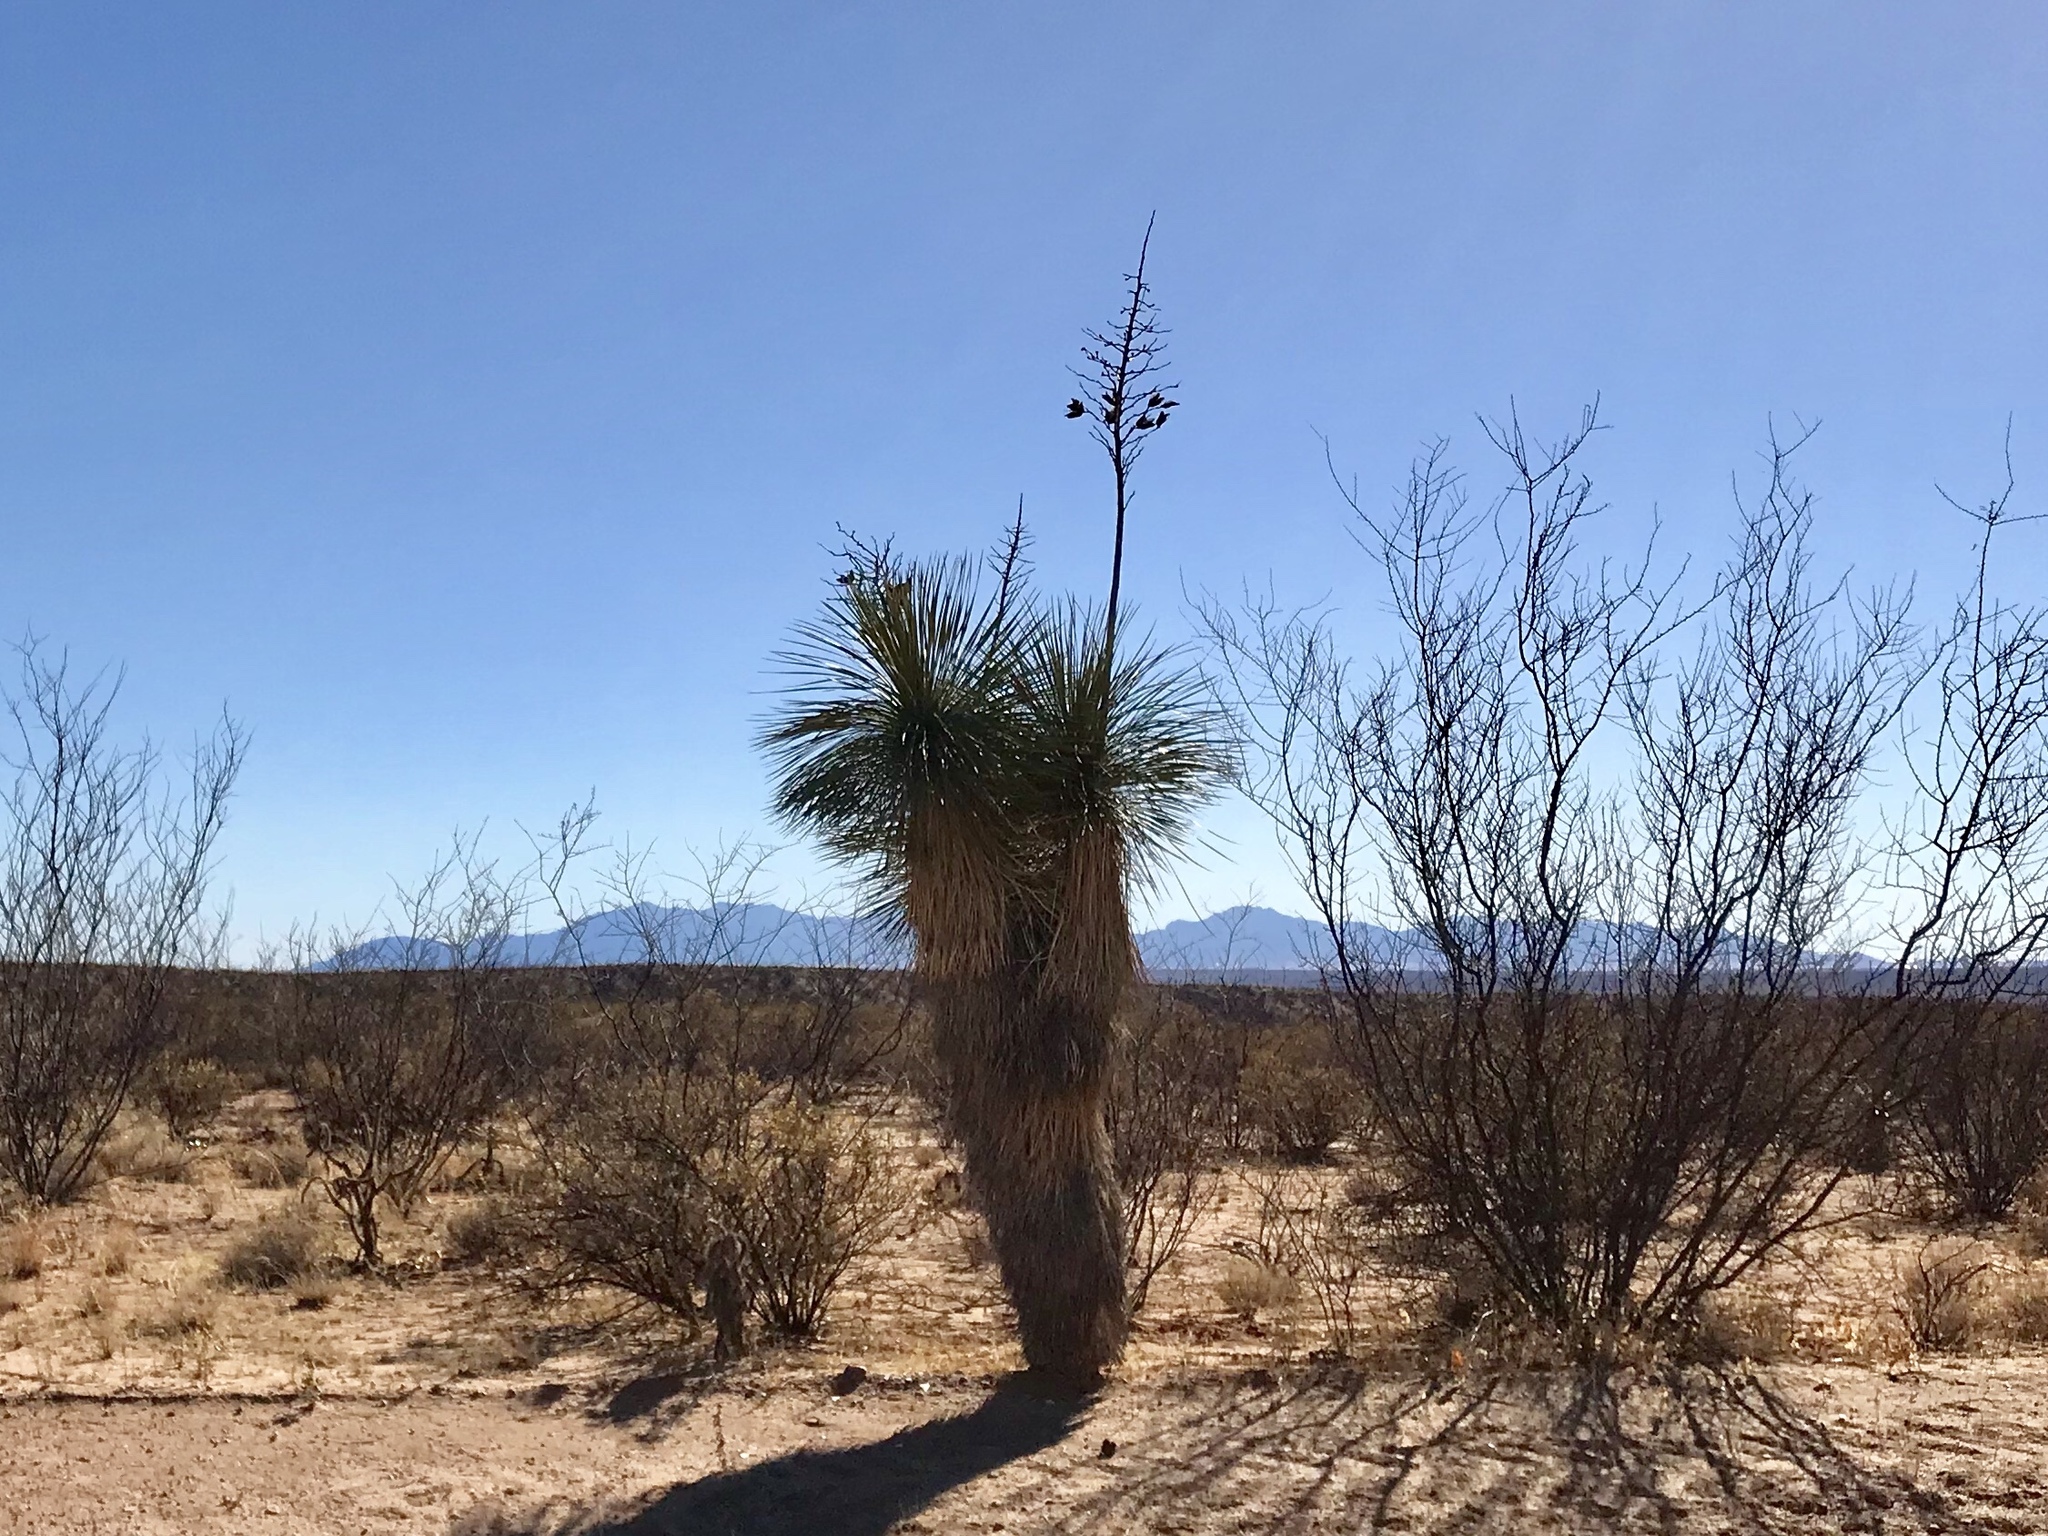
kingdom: Plantae
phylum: Tracheophyta
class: Liliopsida
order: Asparagales
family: Asparagaceae
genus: Yucca
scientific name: Yucca elata
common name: Palmella
